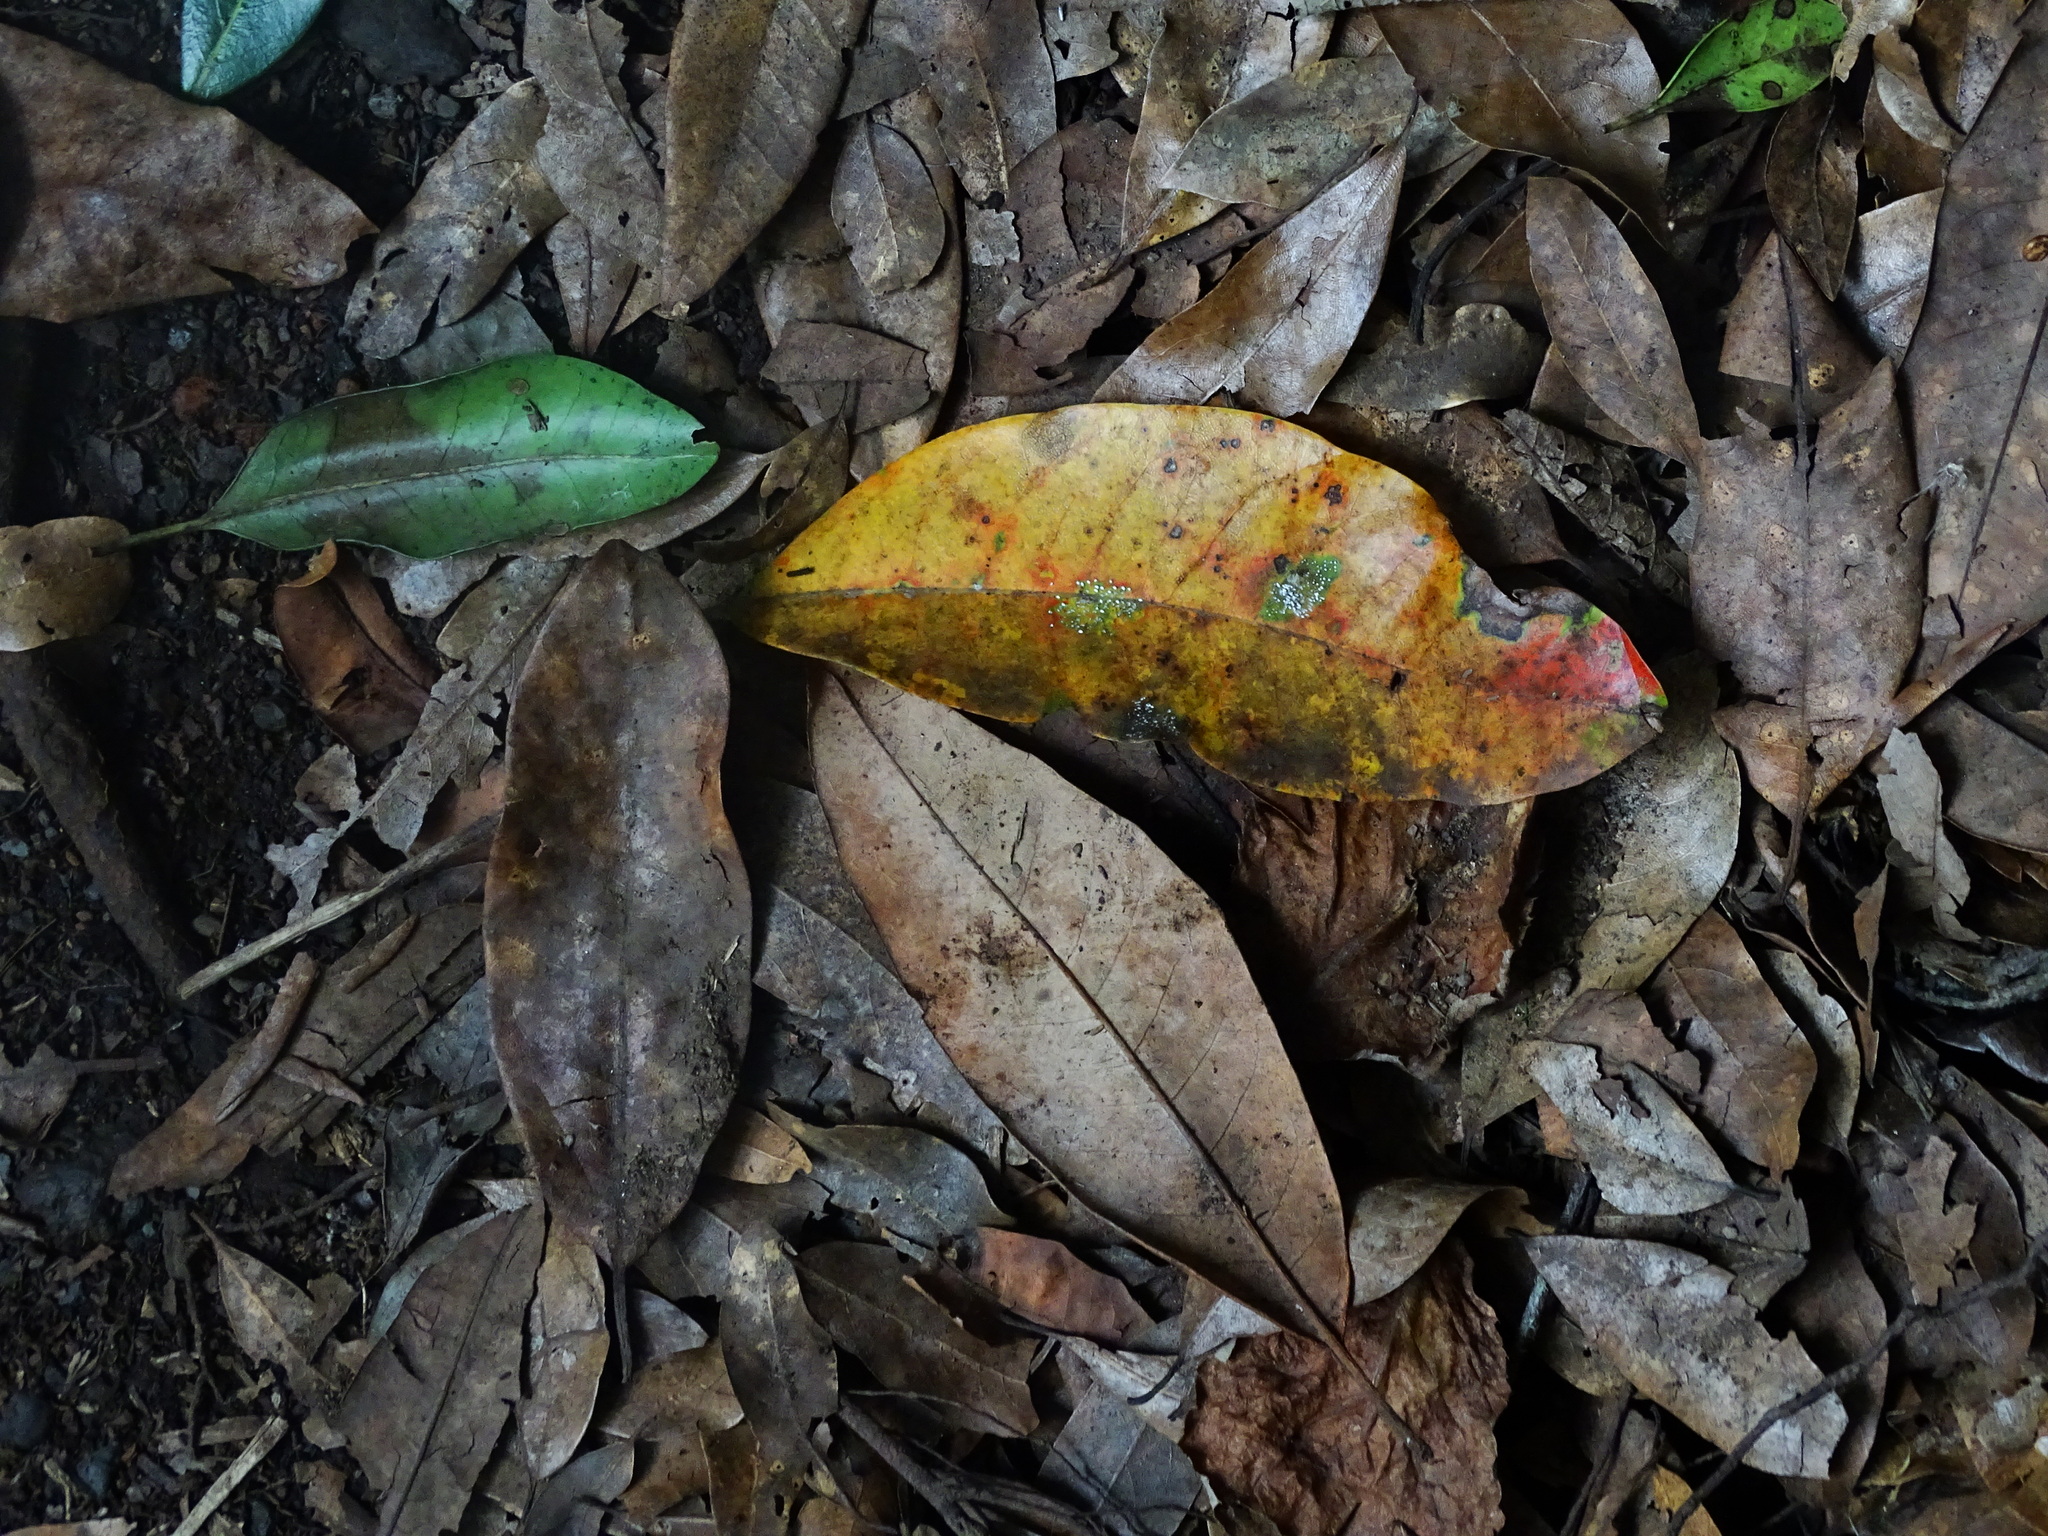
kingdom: Plantae
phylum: Tracheophyta
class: Magnoliopsida
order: Laurales
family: Lauraceae
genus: Persea
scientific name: Persea indica
